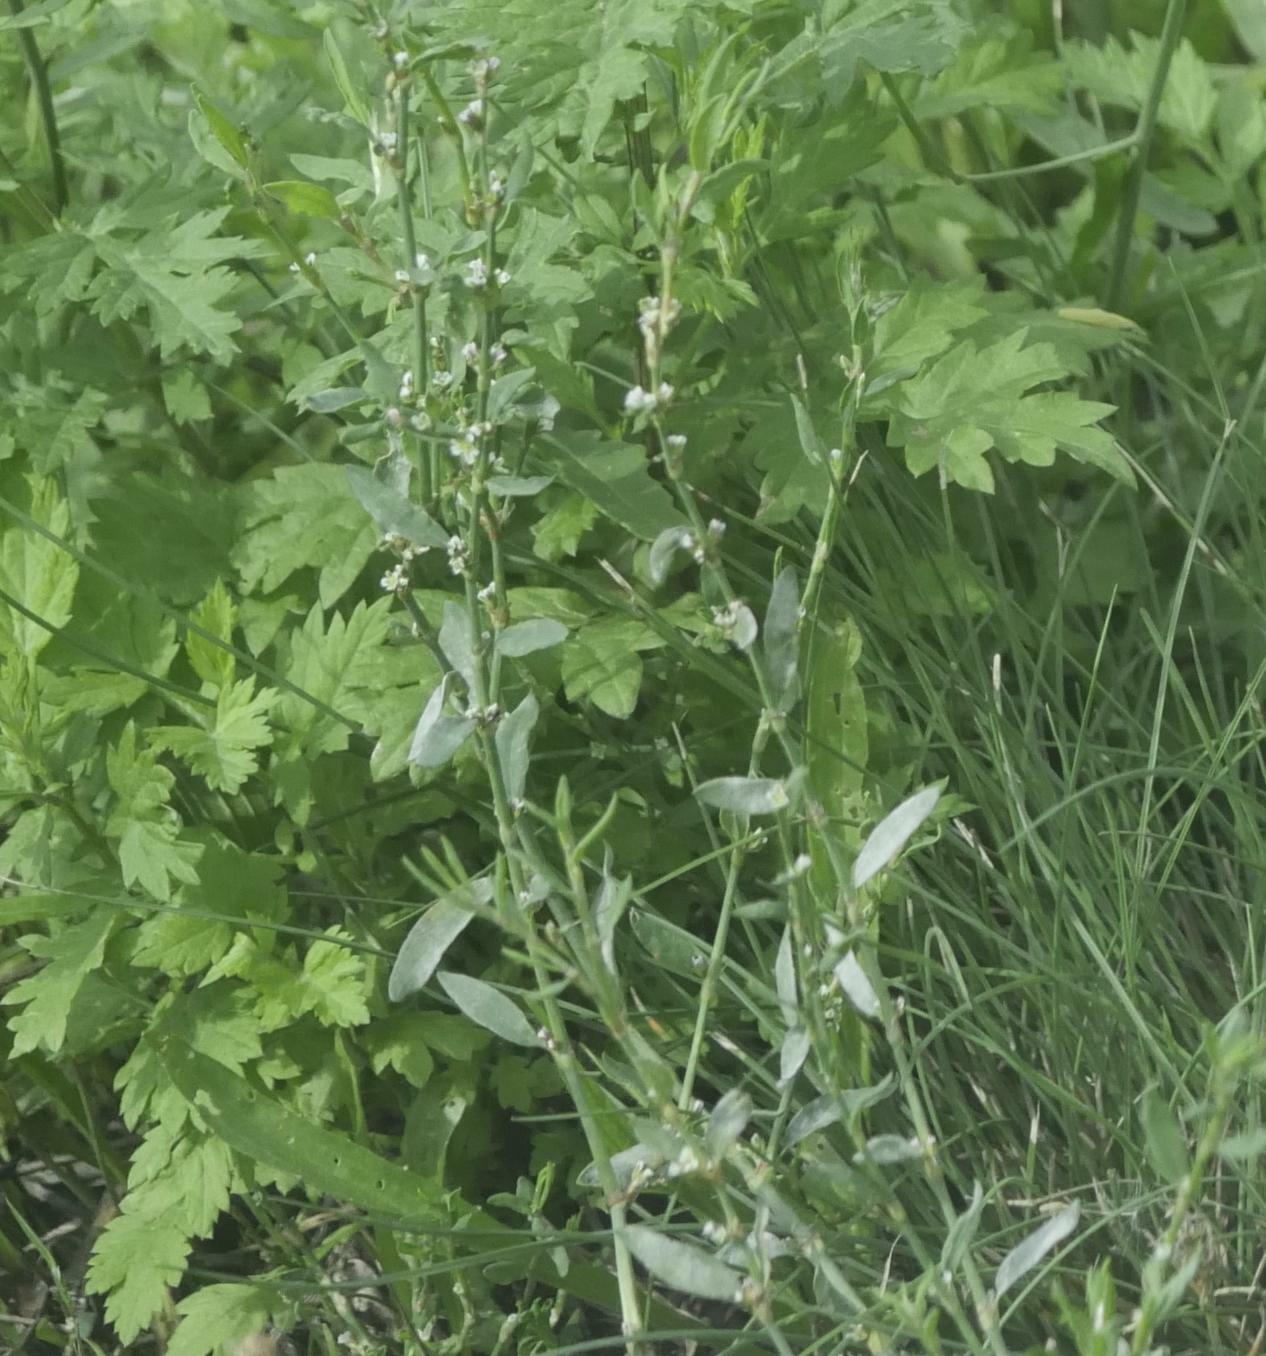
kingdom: Fungi
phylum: Ascomycota
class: Leotiomycetes
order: Helotiales
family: Erysiphaceae
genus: Erysiphe
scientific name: Erysiphe polygoni
